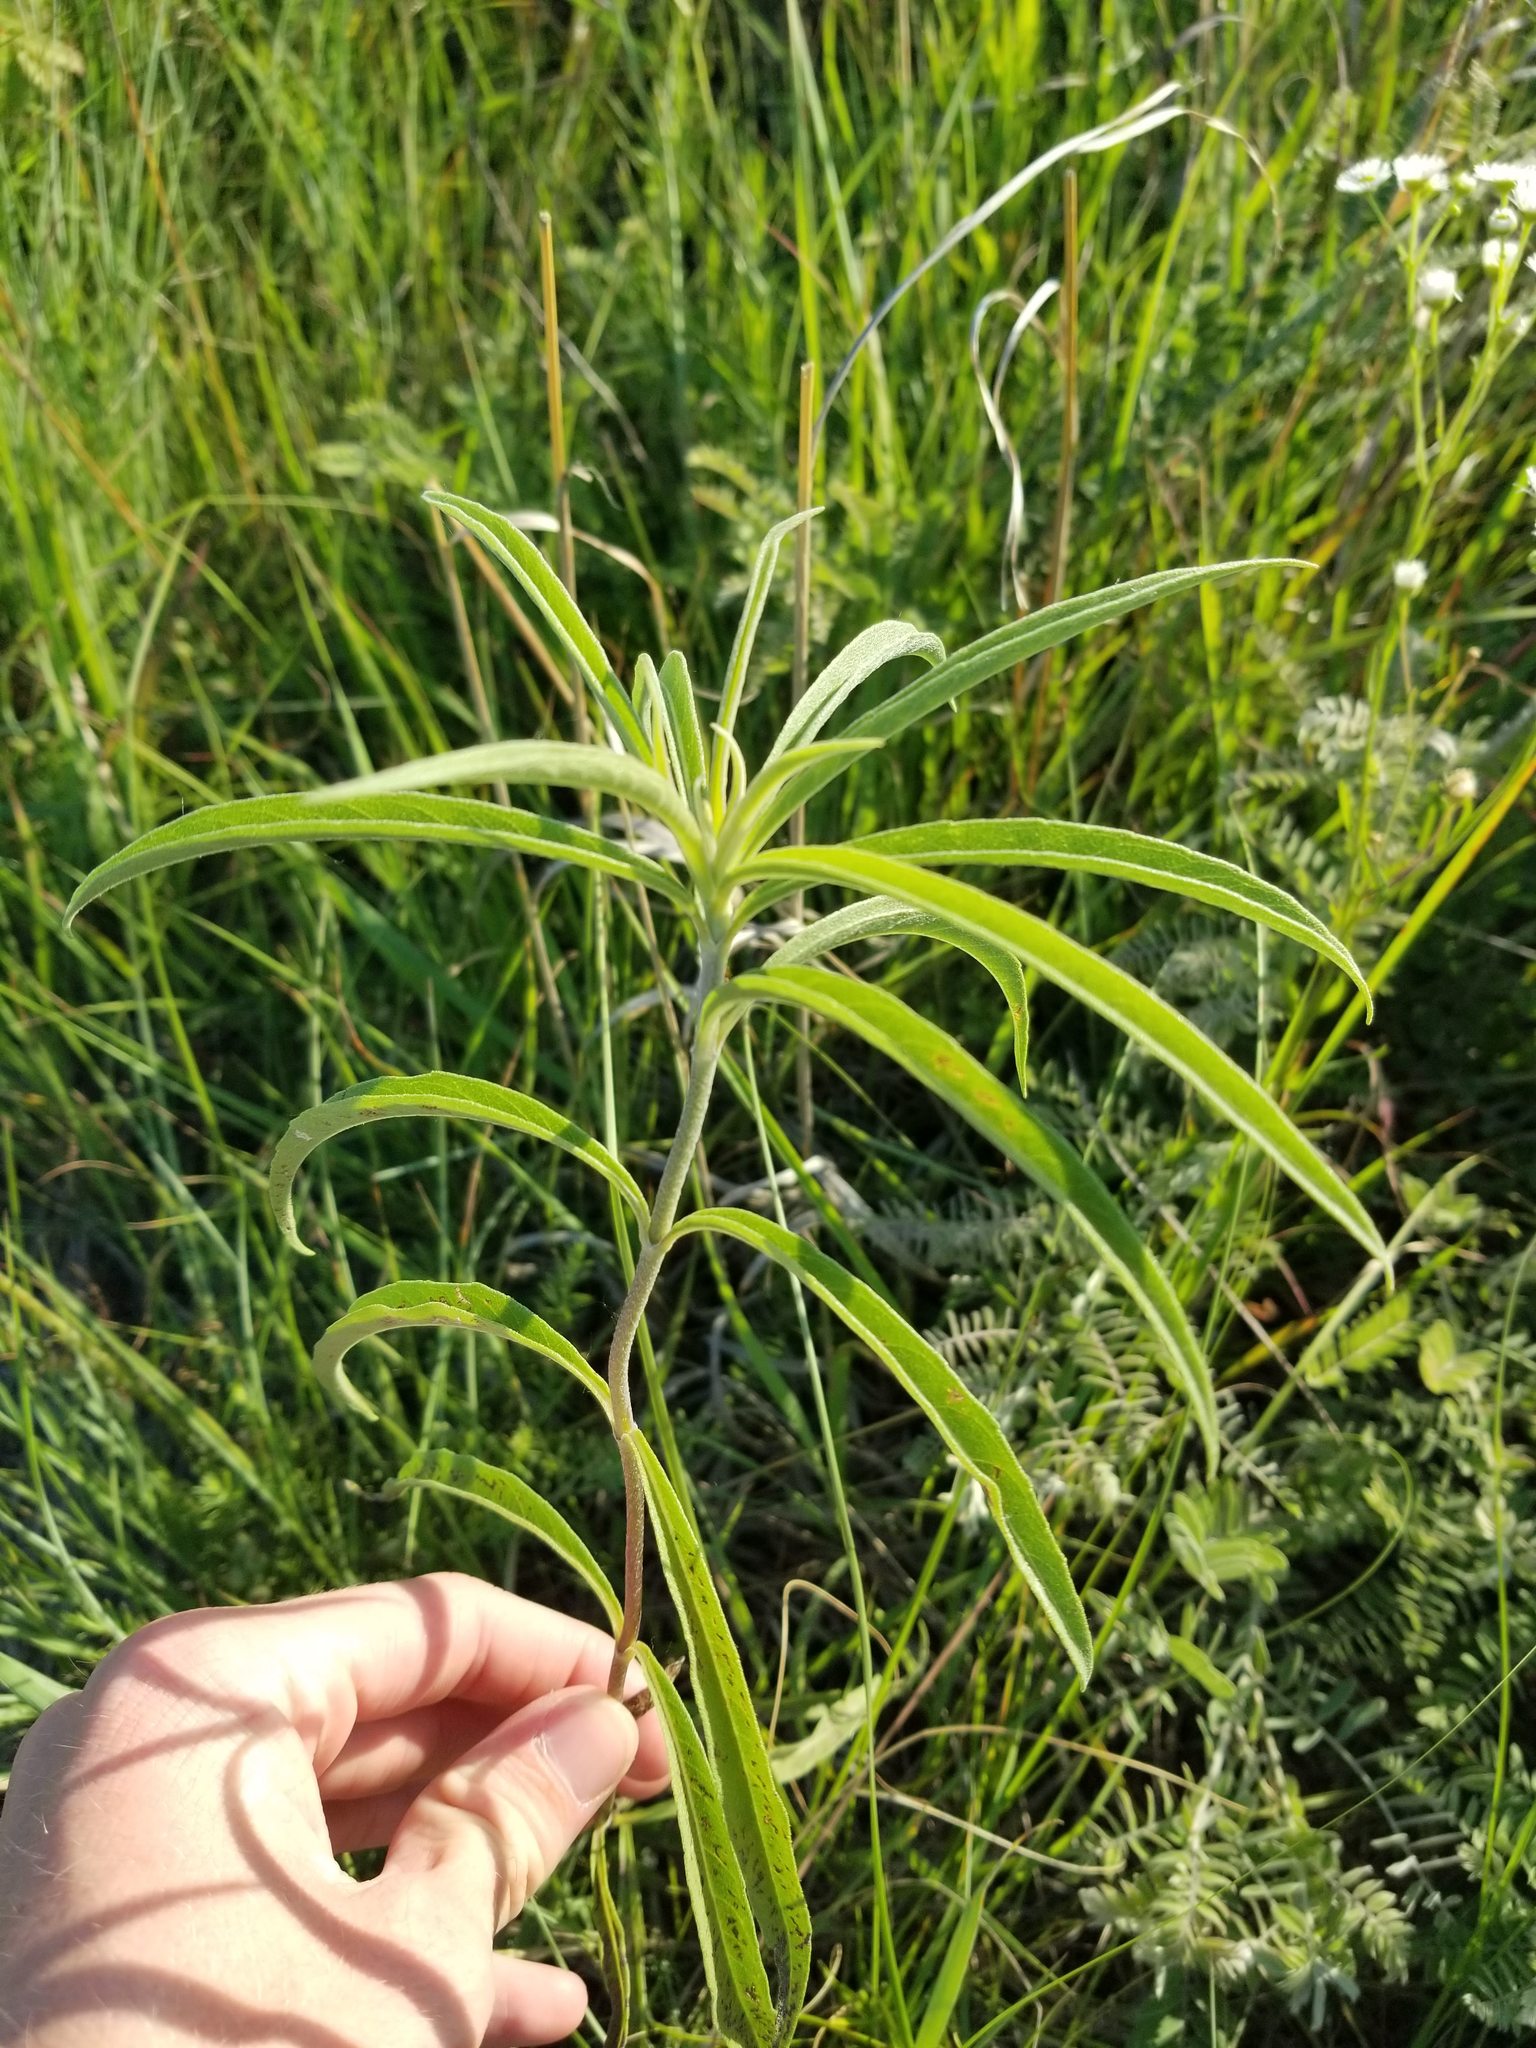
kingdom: Plantae
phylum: Tracheophyta
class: Magnoliopsida
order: Asterales
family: Asteraceae
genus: Helianthus
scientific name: Helianthus maximiliani
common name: Maximilian's sunflower
